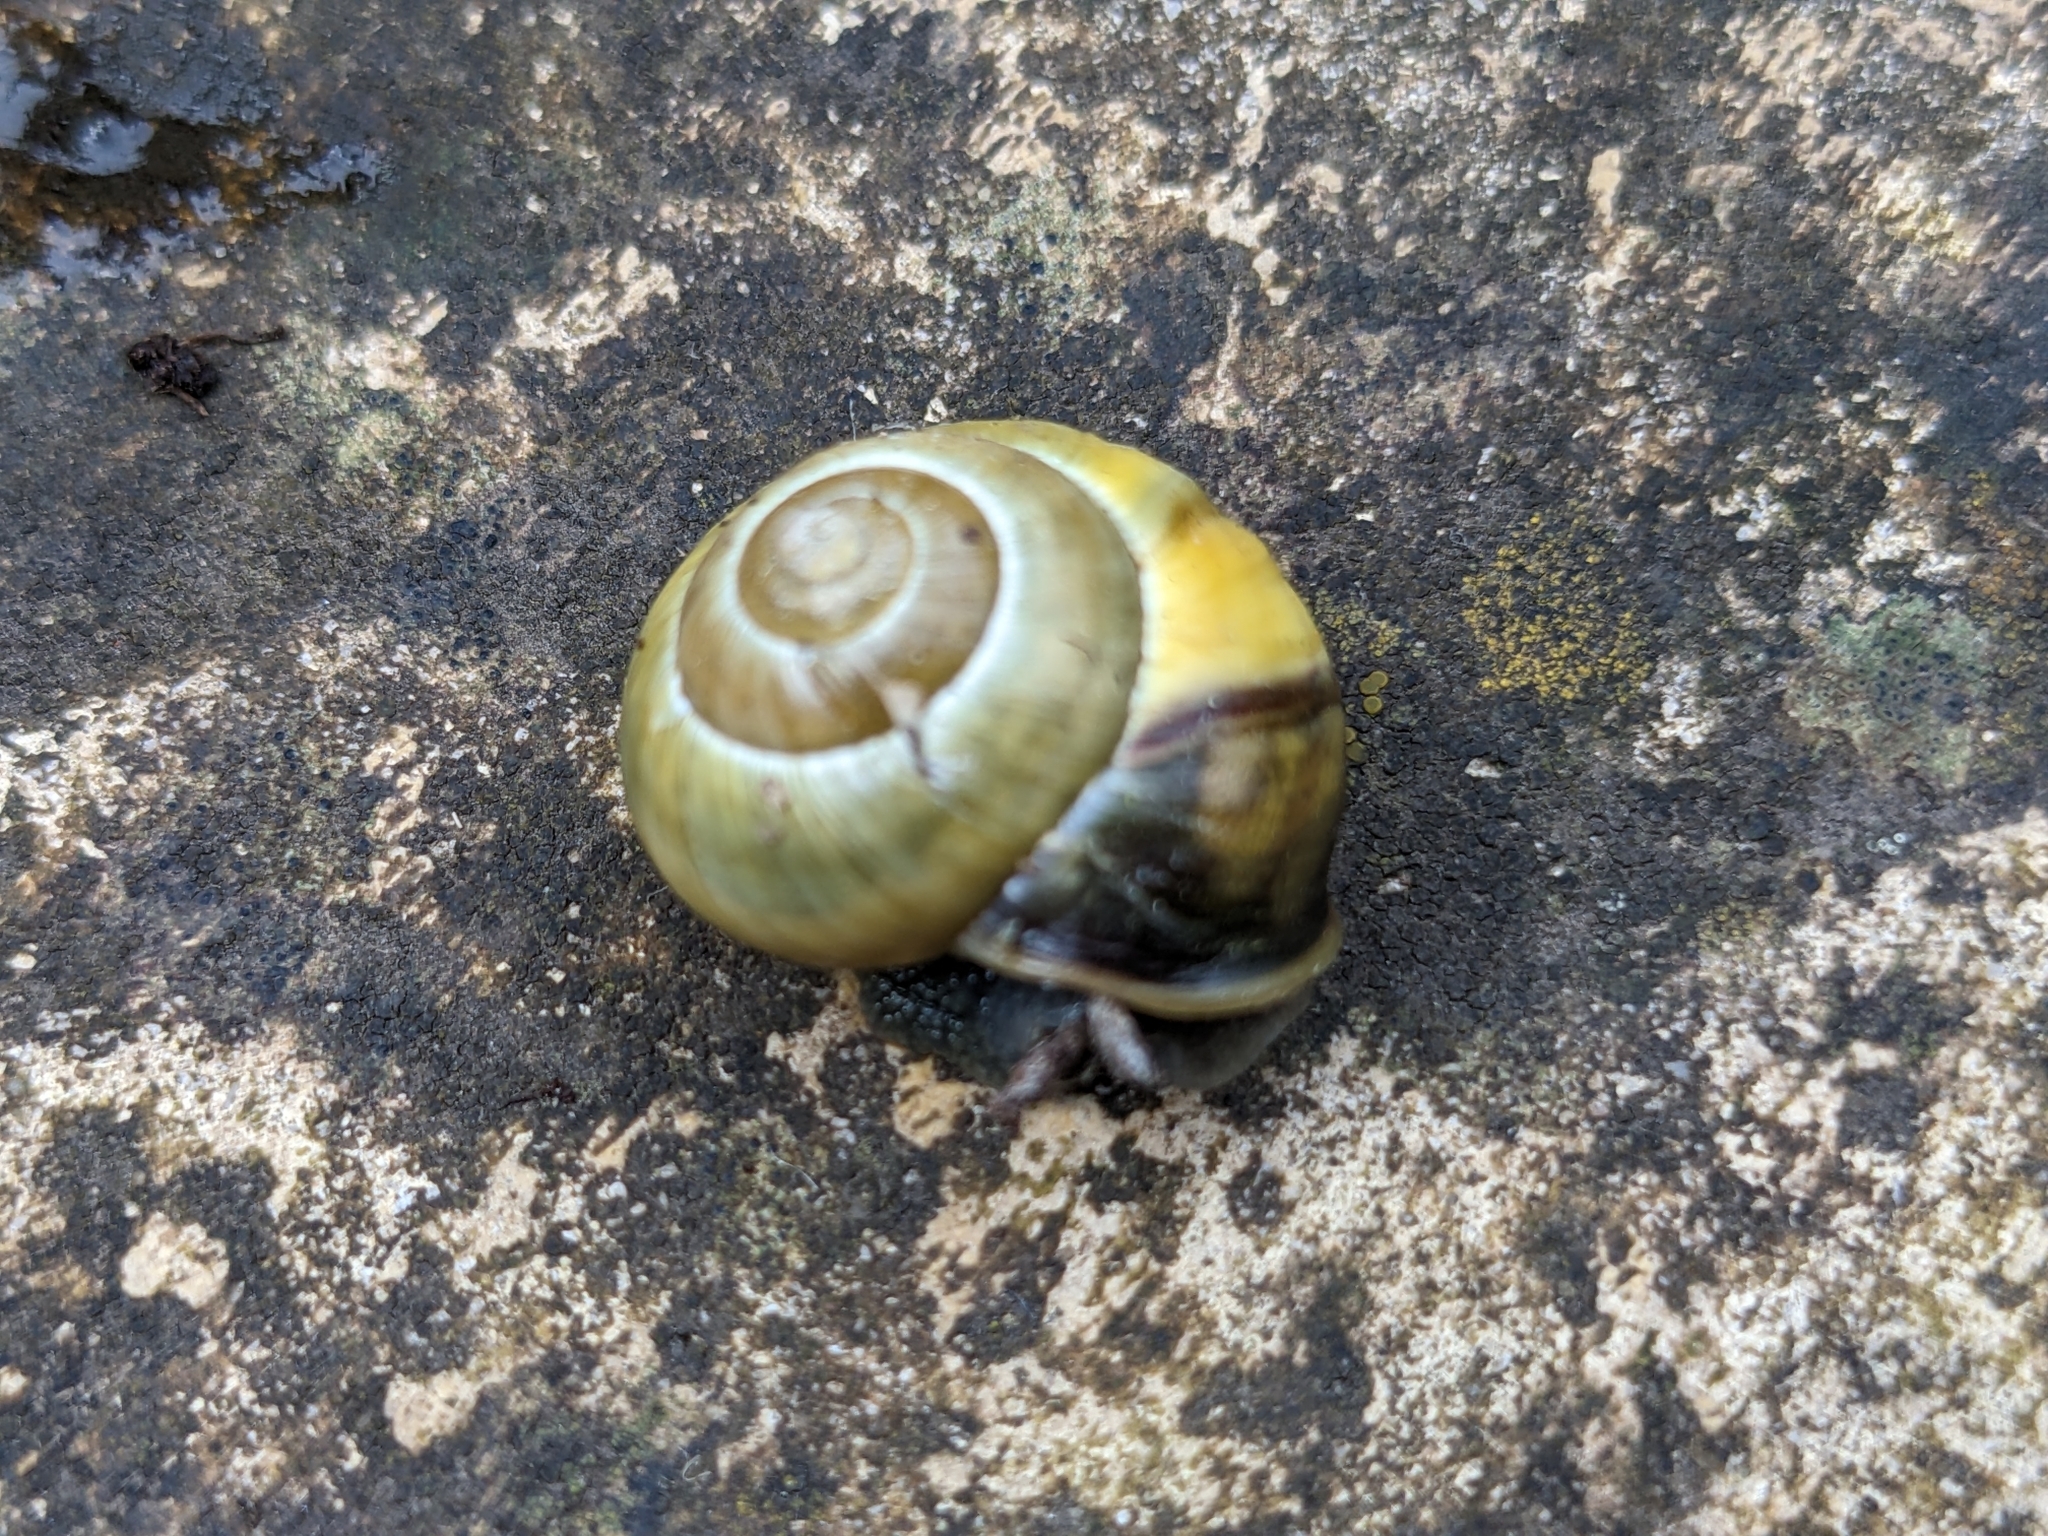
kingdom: Animalia
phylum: Mollusca
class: Gastropoda
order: Stylommatophora
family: Helicidae
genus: Cepaea
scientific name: Cepaea nemoralis
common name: Grovesnail
